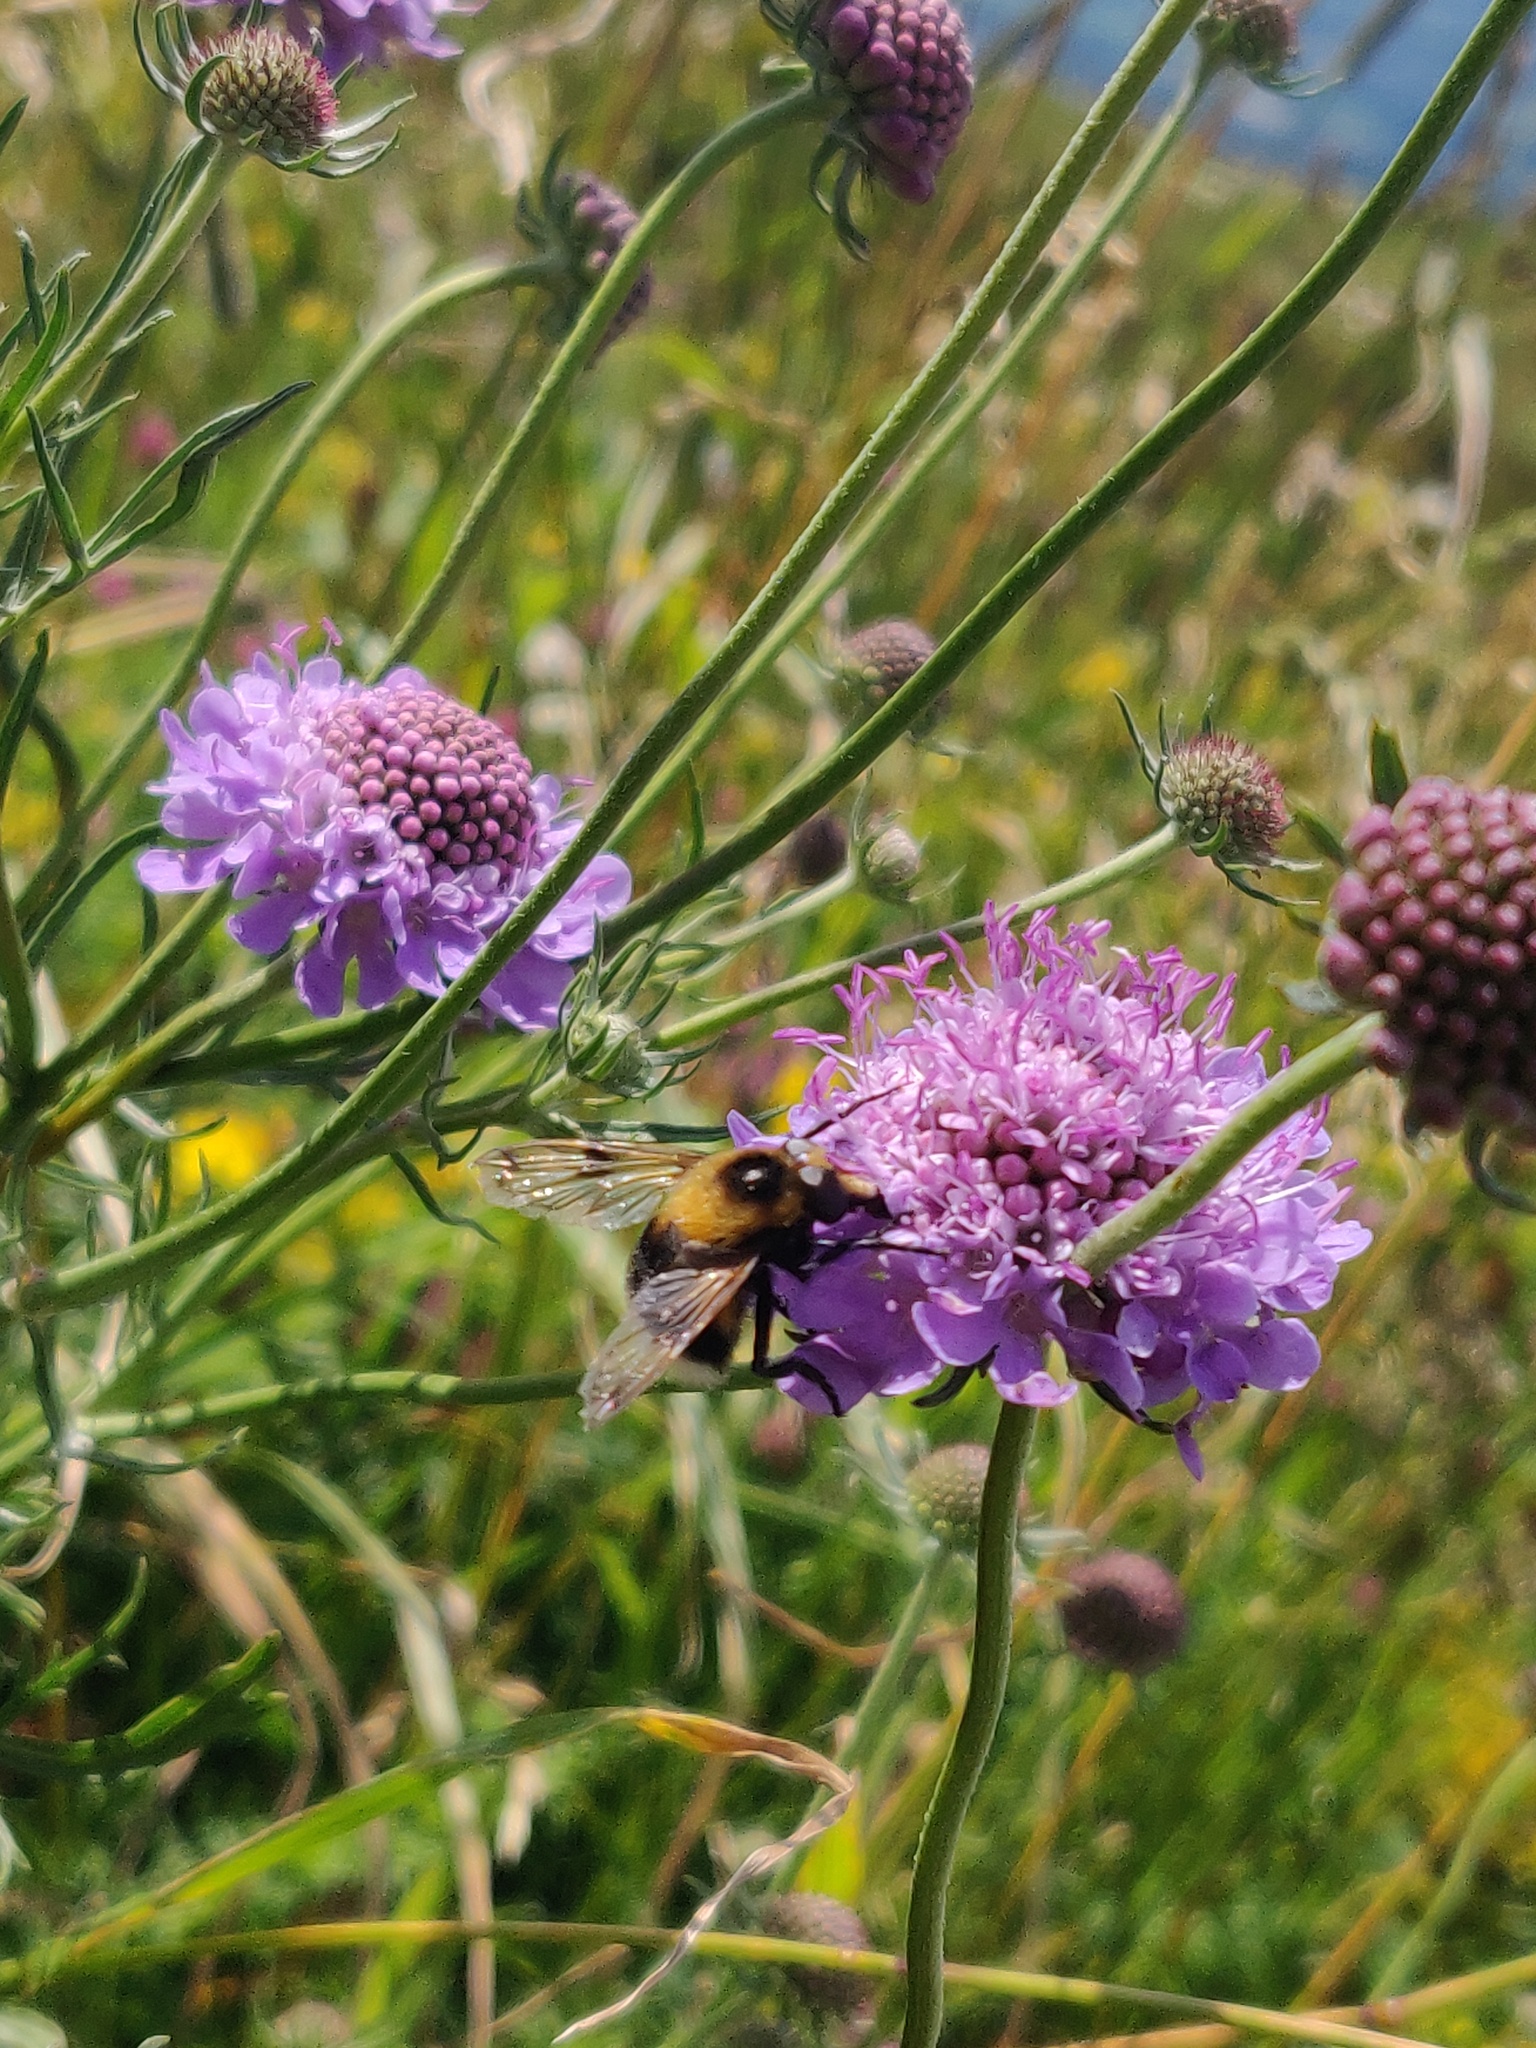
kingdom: Animalia
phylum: Arthropoda
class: Insecta
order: Diptera
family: Syrphidae
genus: Volucella
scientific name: Volucella bombylans
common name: Bumble bee hover fly
